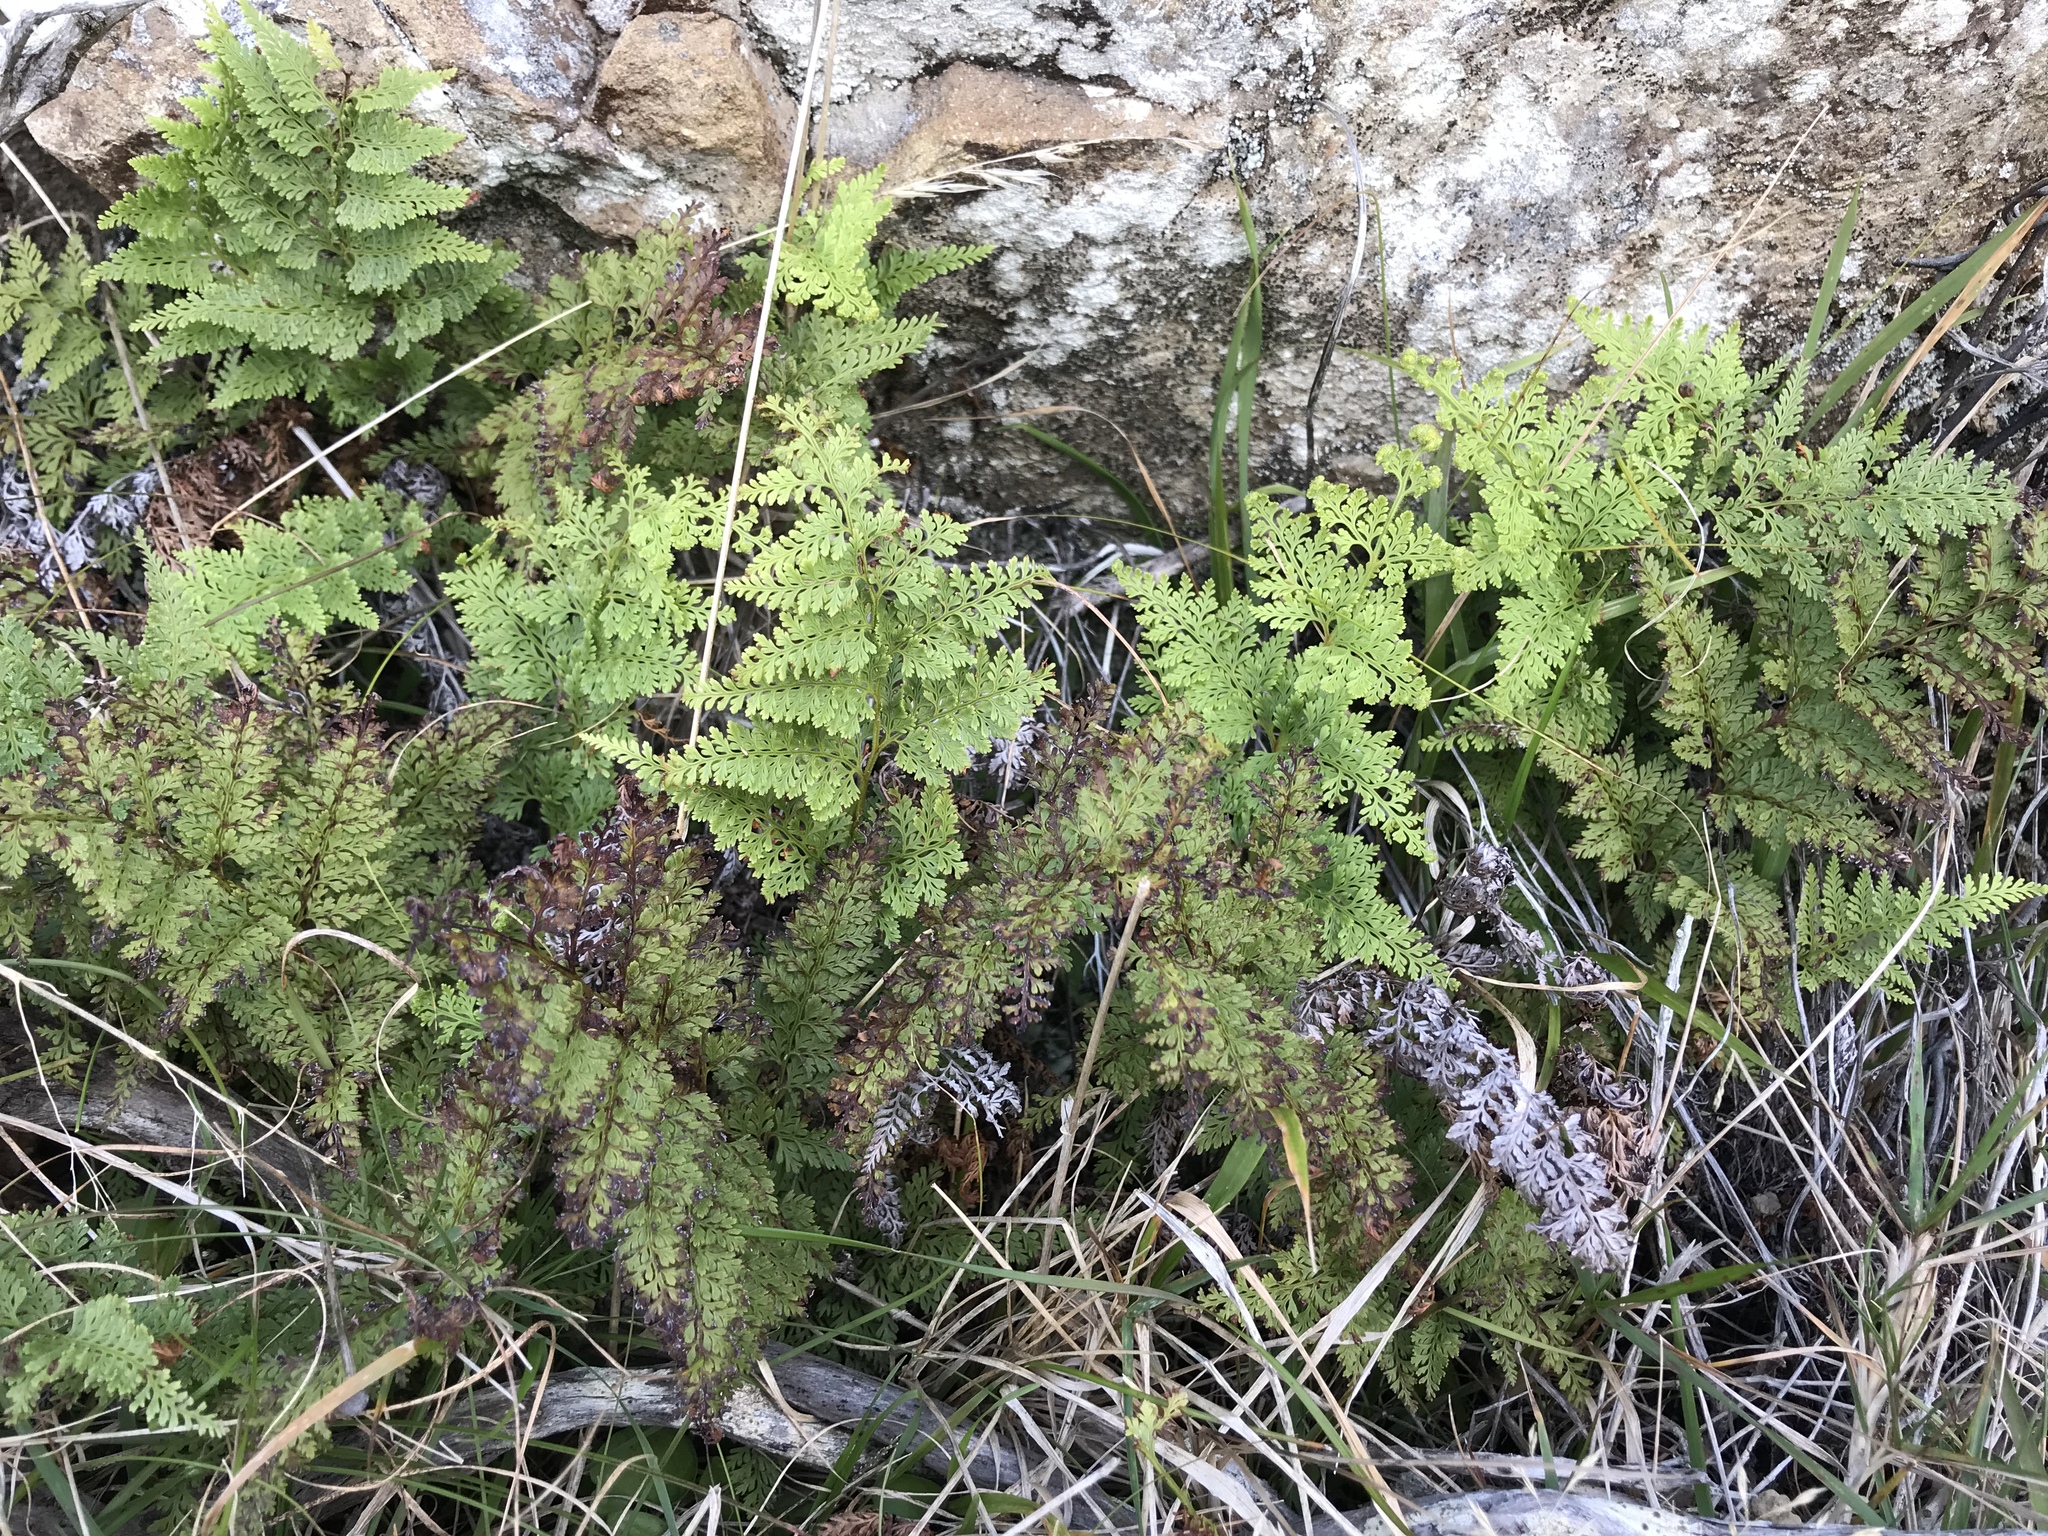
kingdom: Plantae
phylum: Tracheophyta
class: Polypodiopsida
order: Polypodiales
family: Dennstaedtiaceae
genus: Paesia
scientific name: Paesia scaberula
